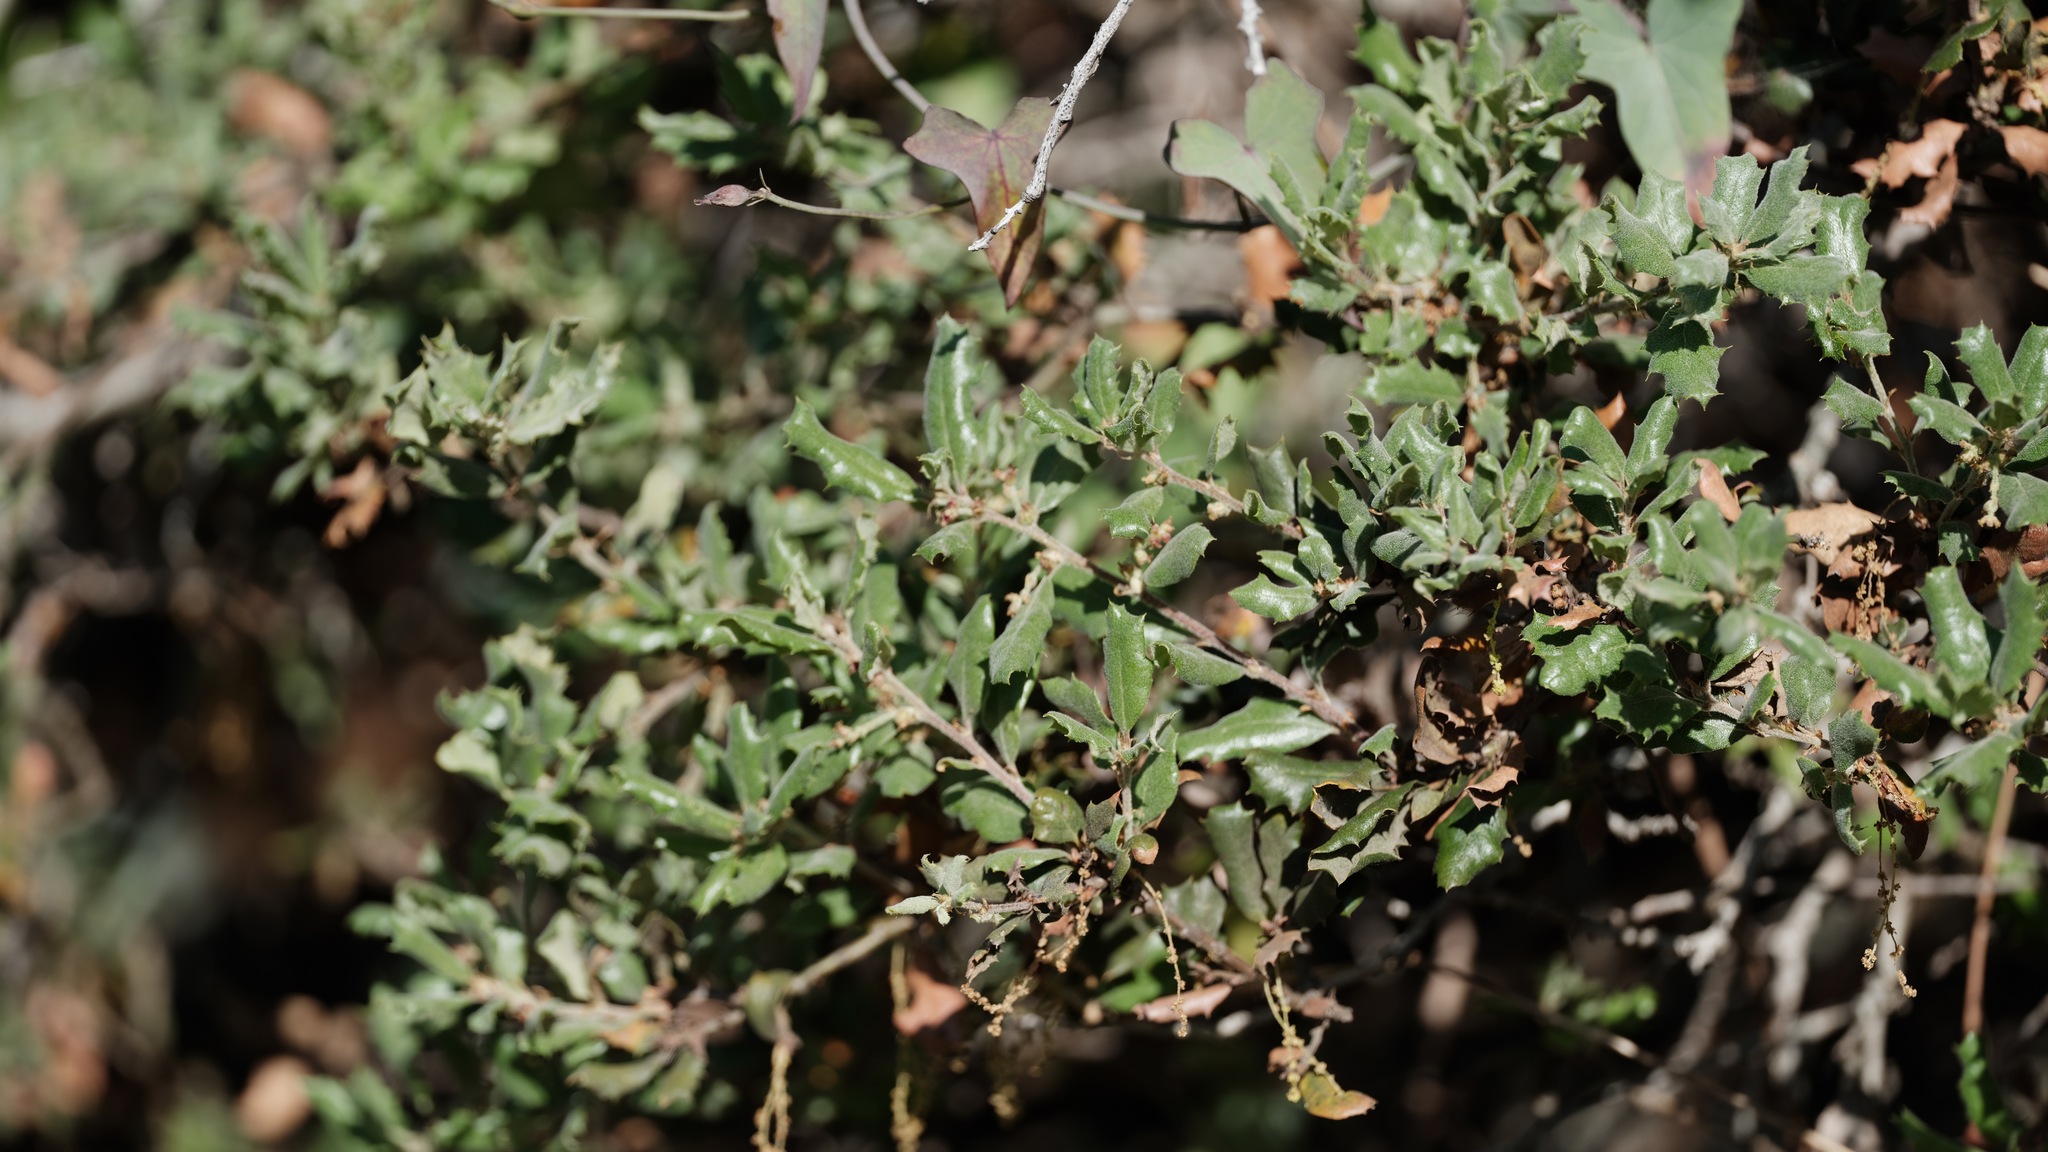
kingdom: Plantae
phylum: Tracheophyta
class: Magnoliopsida
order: Fagales
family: Fagaceae
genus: Quercus
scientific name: Quercus durata
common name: Leather oak
